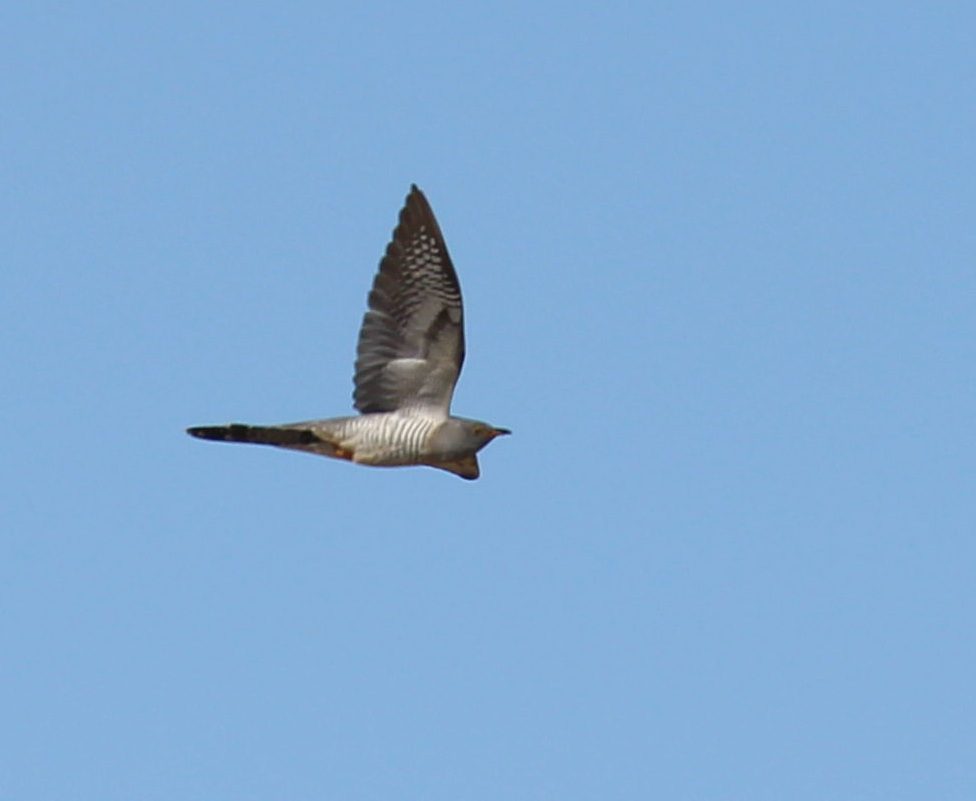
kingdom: Animalia
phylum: Chordata
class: Aves
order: Cuculiformes
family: Cuculidae
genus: Cuculus
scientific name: Cuculus canorus
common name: Common cuckoo
